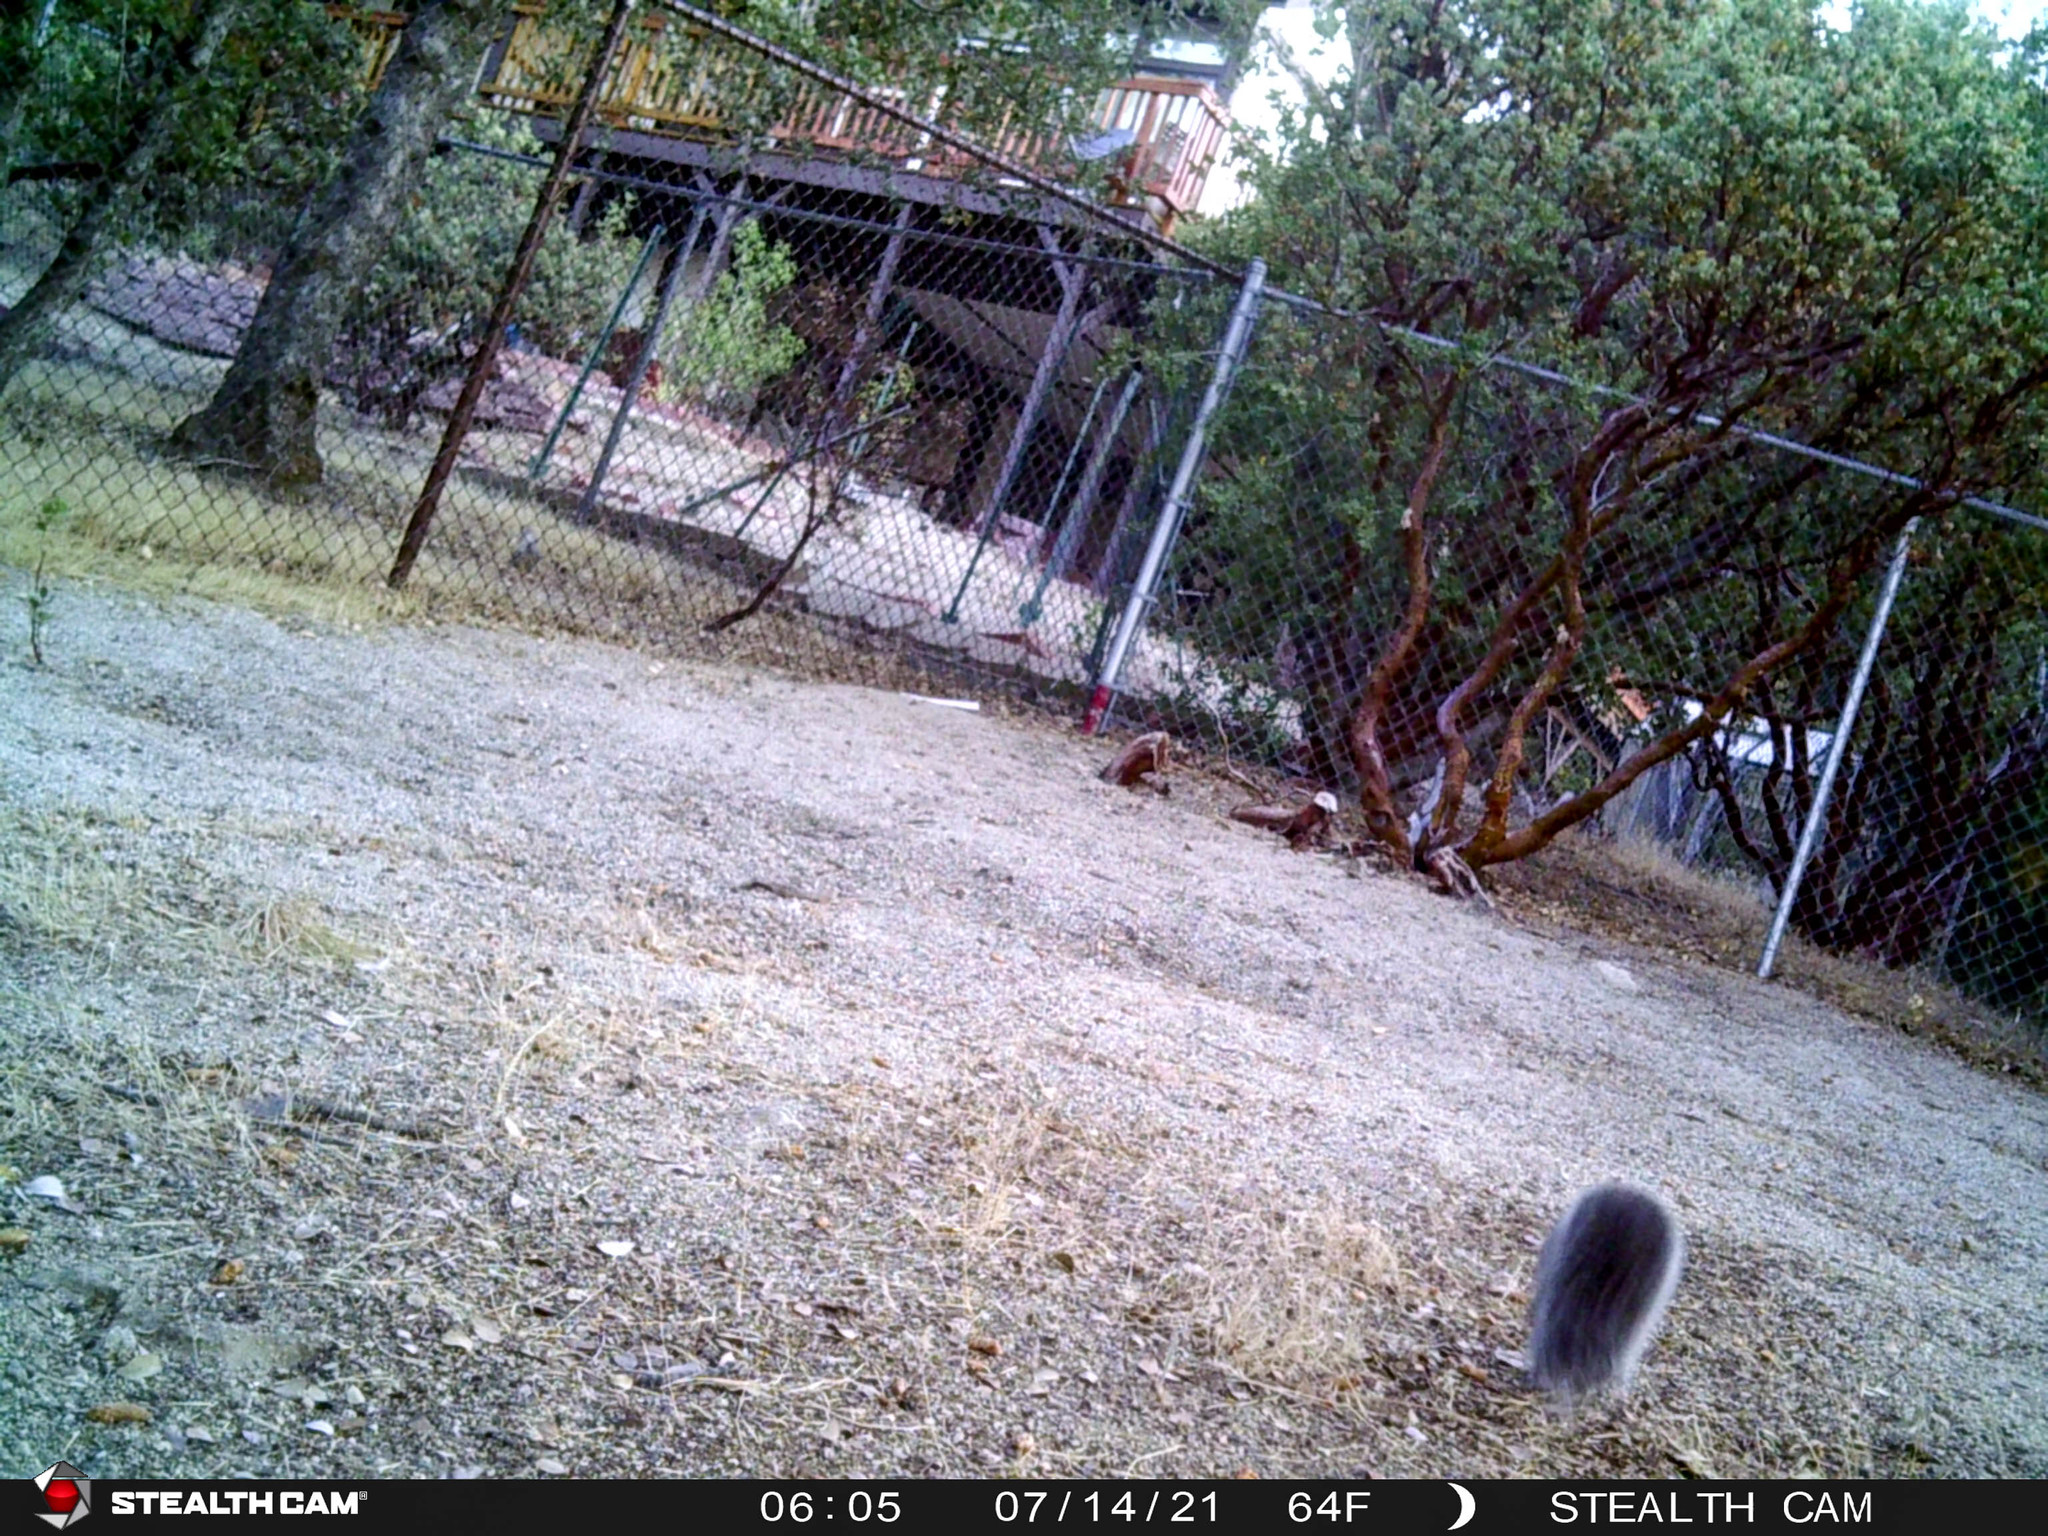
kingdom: Animalia
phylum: Chordata
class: Mammalia
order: Rodentia
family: Sciuridae
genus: Sciurus
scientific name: Sciurus griseus
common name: Western gray squirrel
